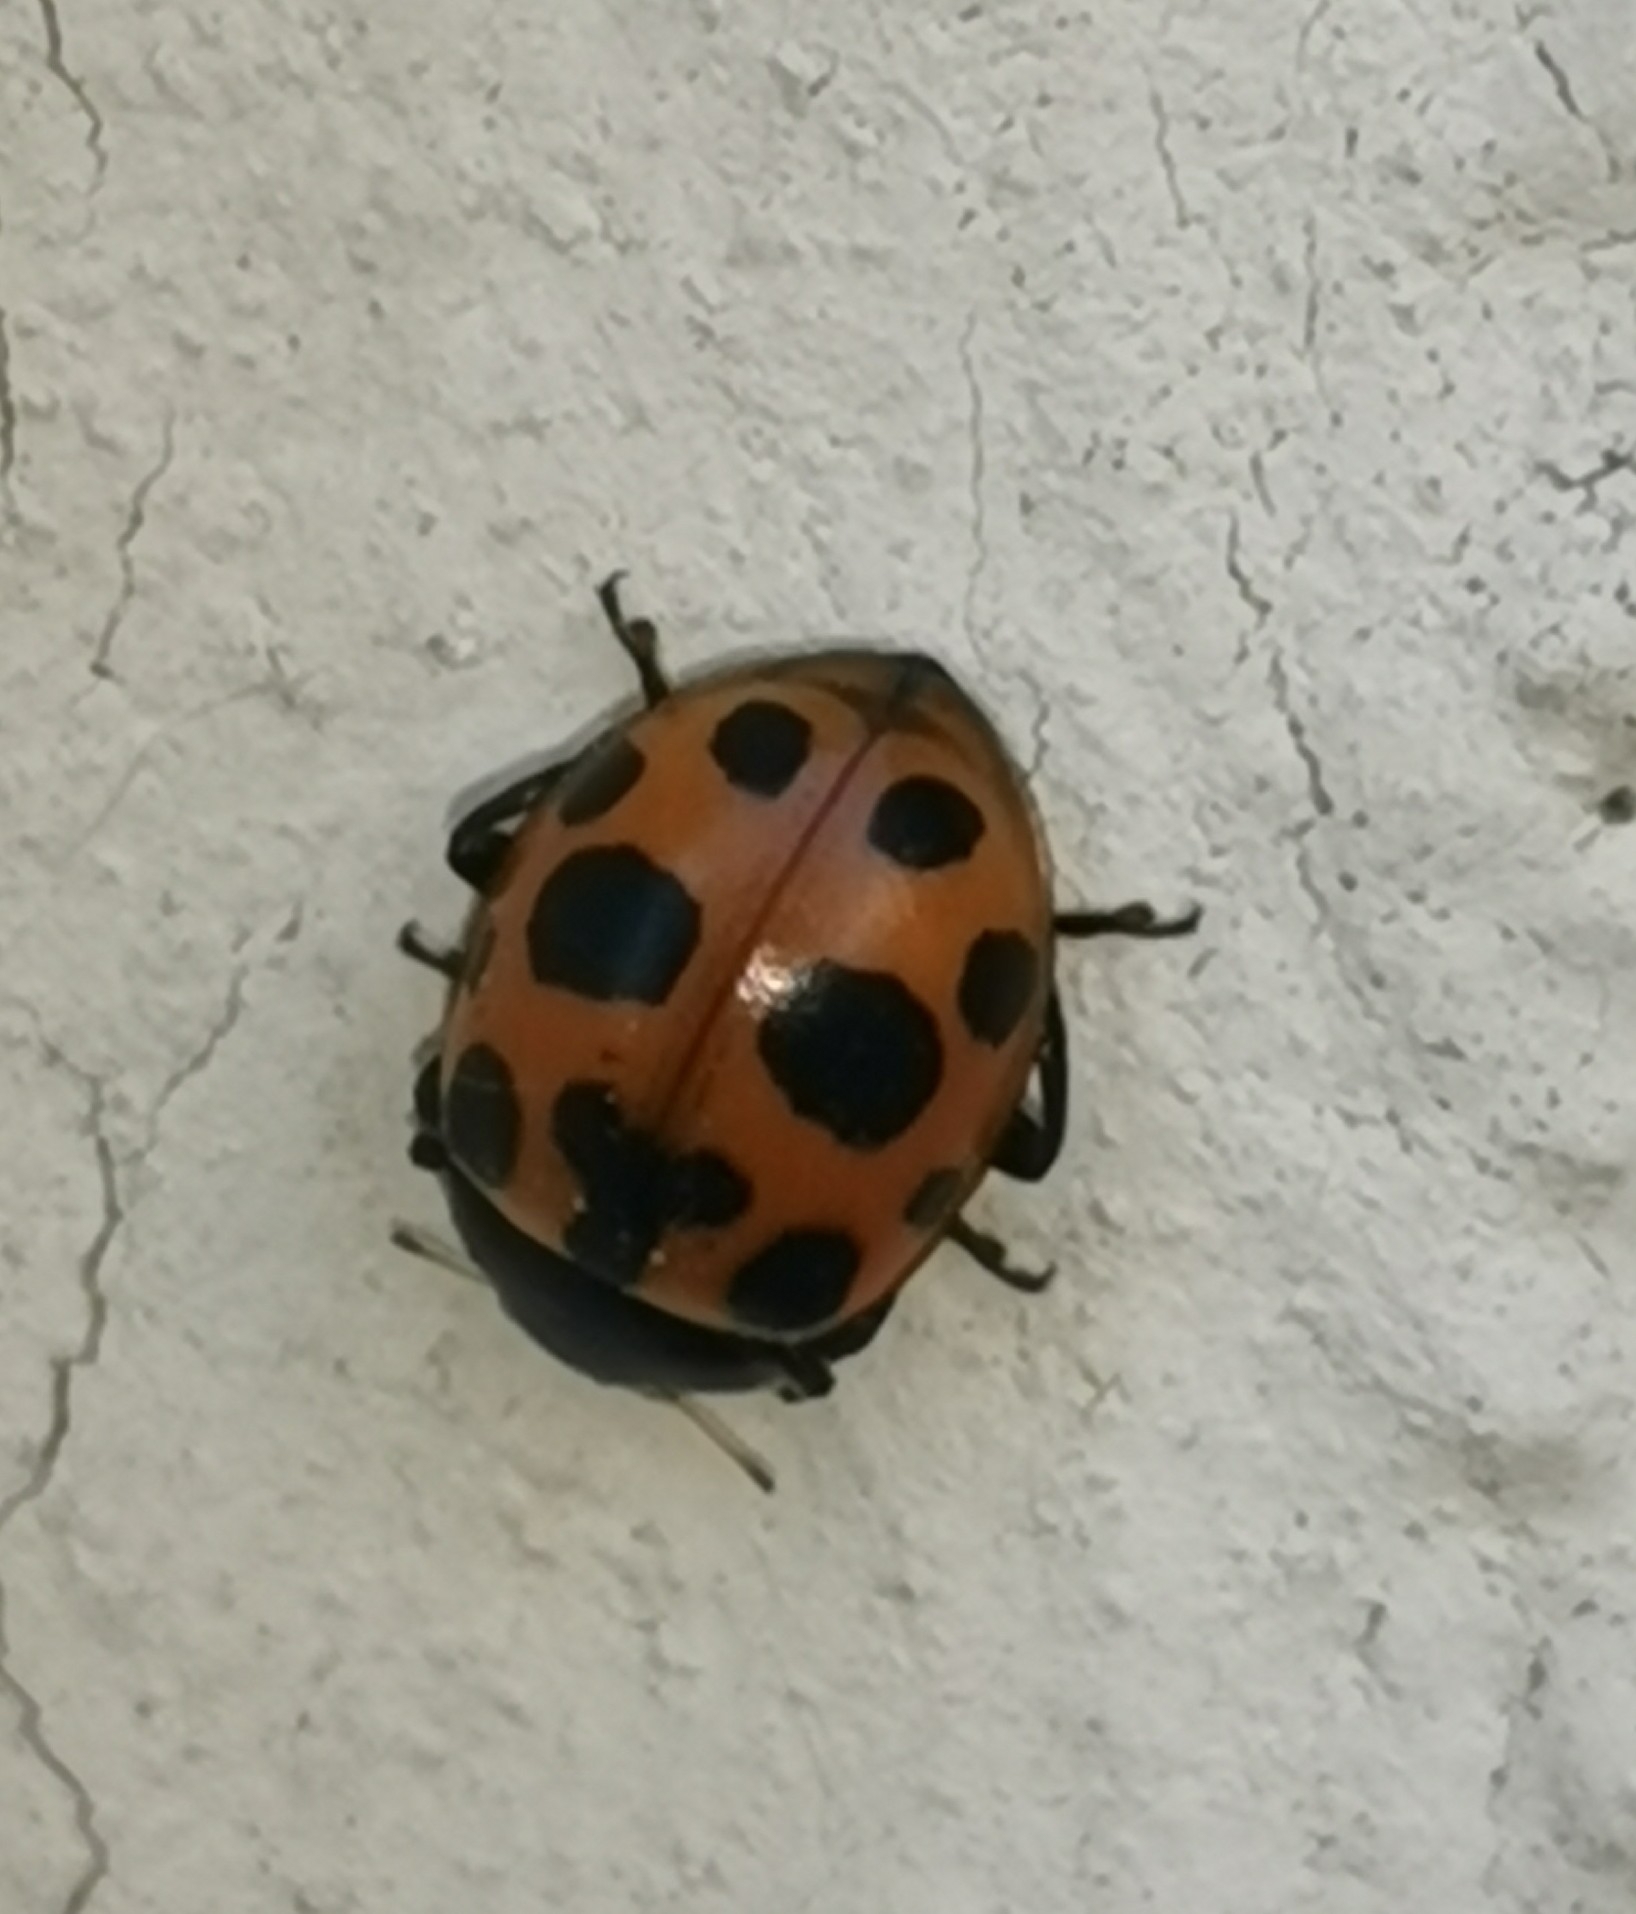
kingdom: Animalia
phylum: Arthropoda
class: Insecta
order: Coleoptera
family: Coccinellidae
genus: Ceratomegilla
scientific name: Ceratomegilla notata
